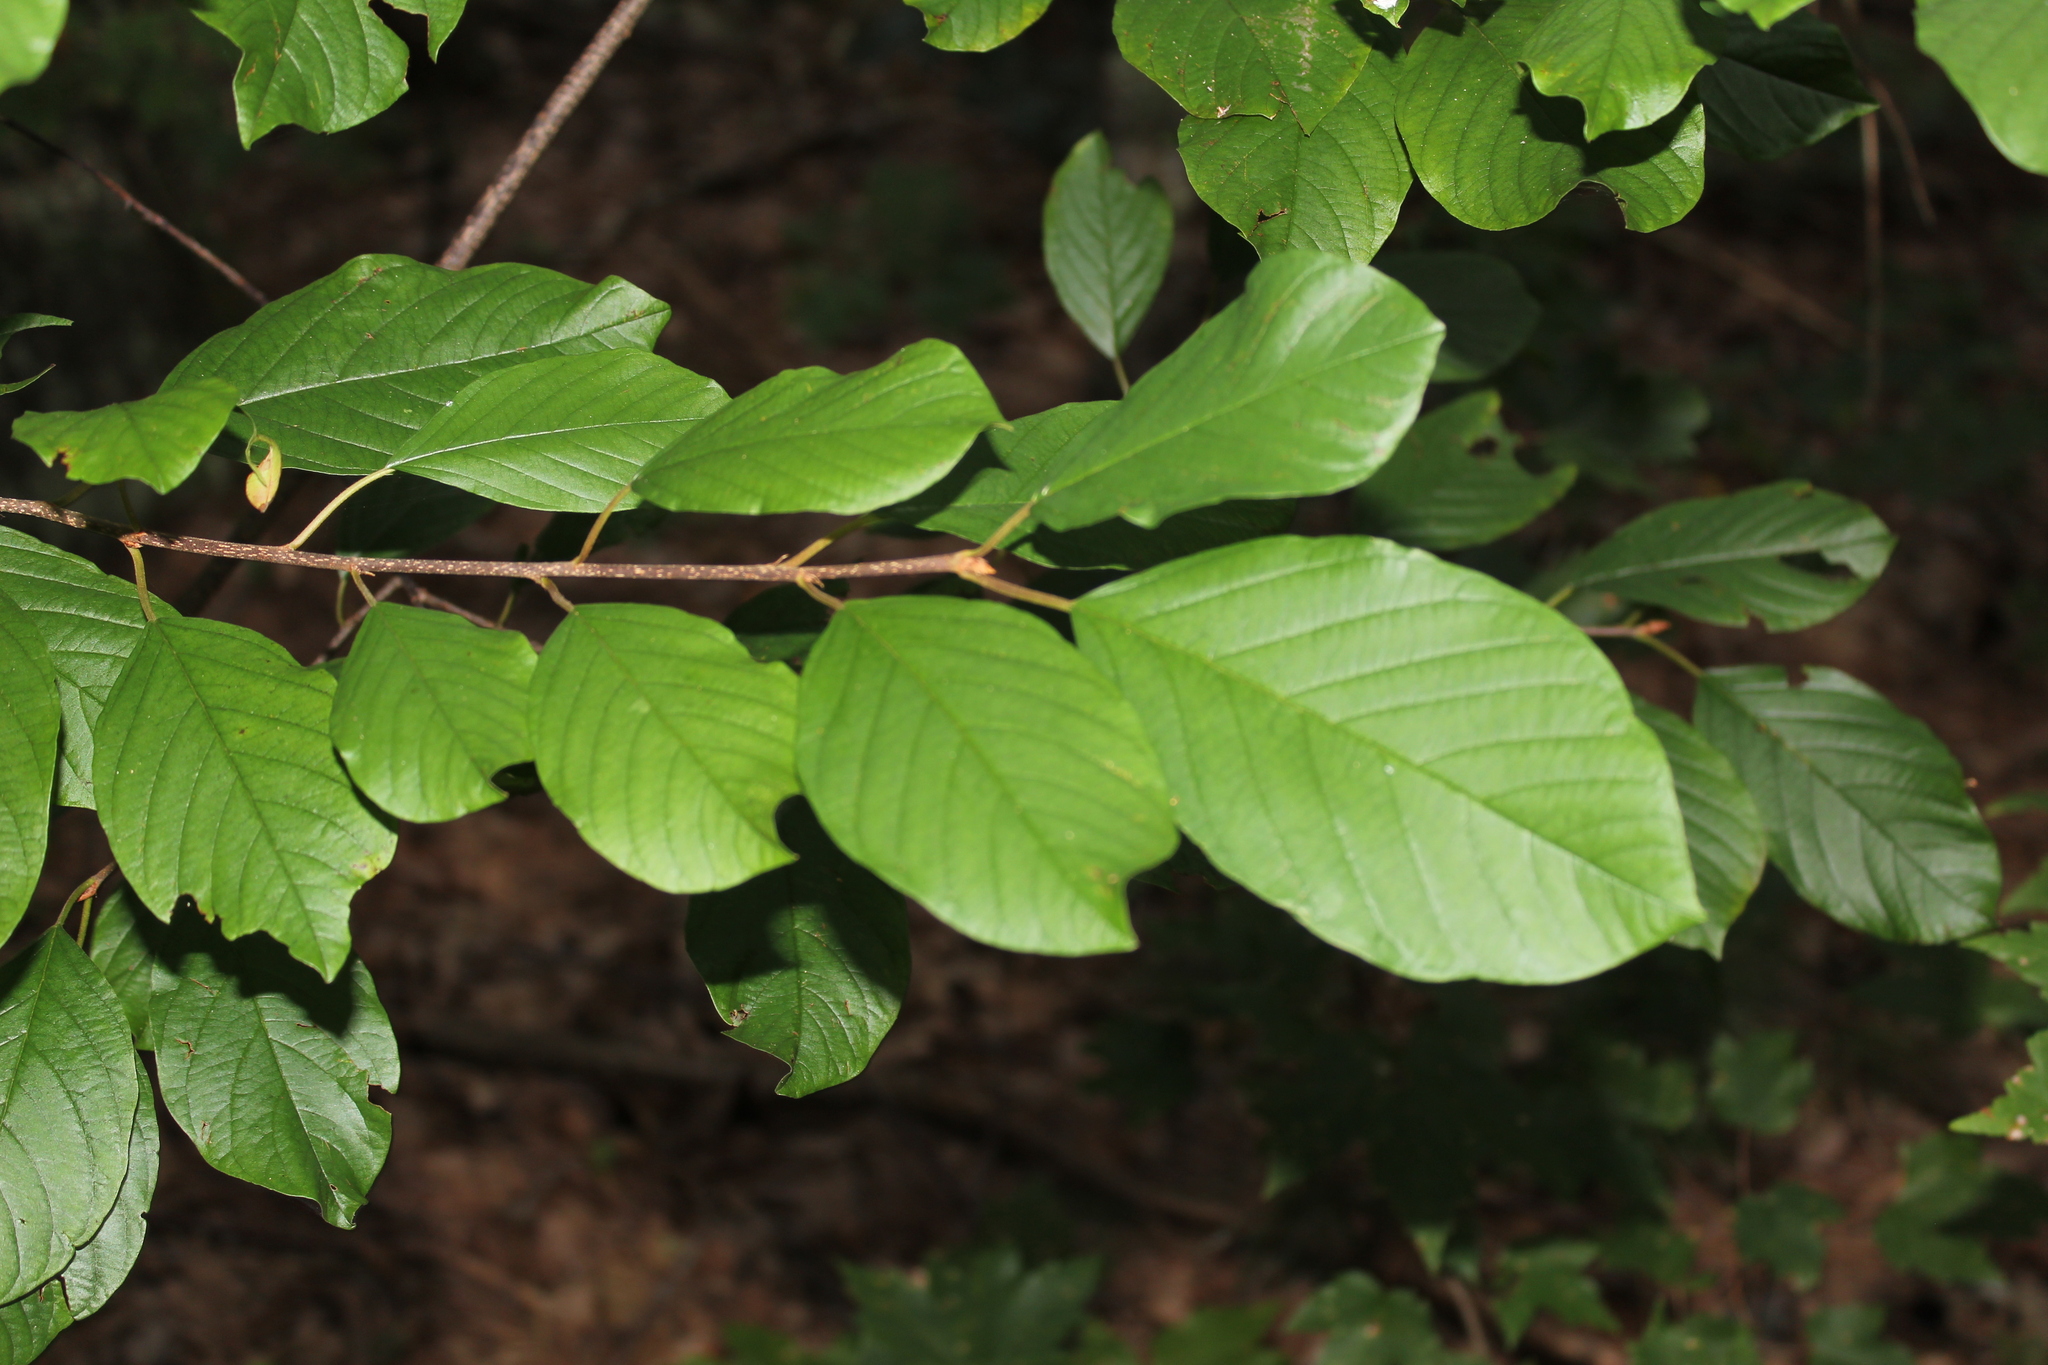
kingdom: Plantae
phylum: Tracheophyta
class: Magnoliopsida
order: Rosales
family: Rhamnaceae
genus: Frangula
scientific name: Frangula alnus
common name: Alder buckthorn
